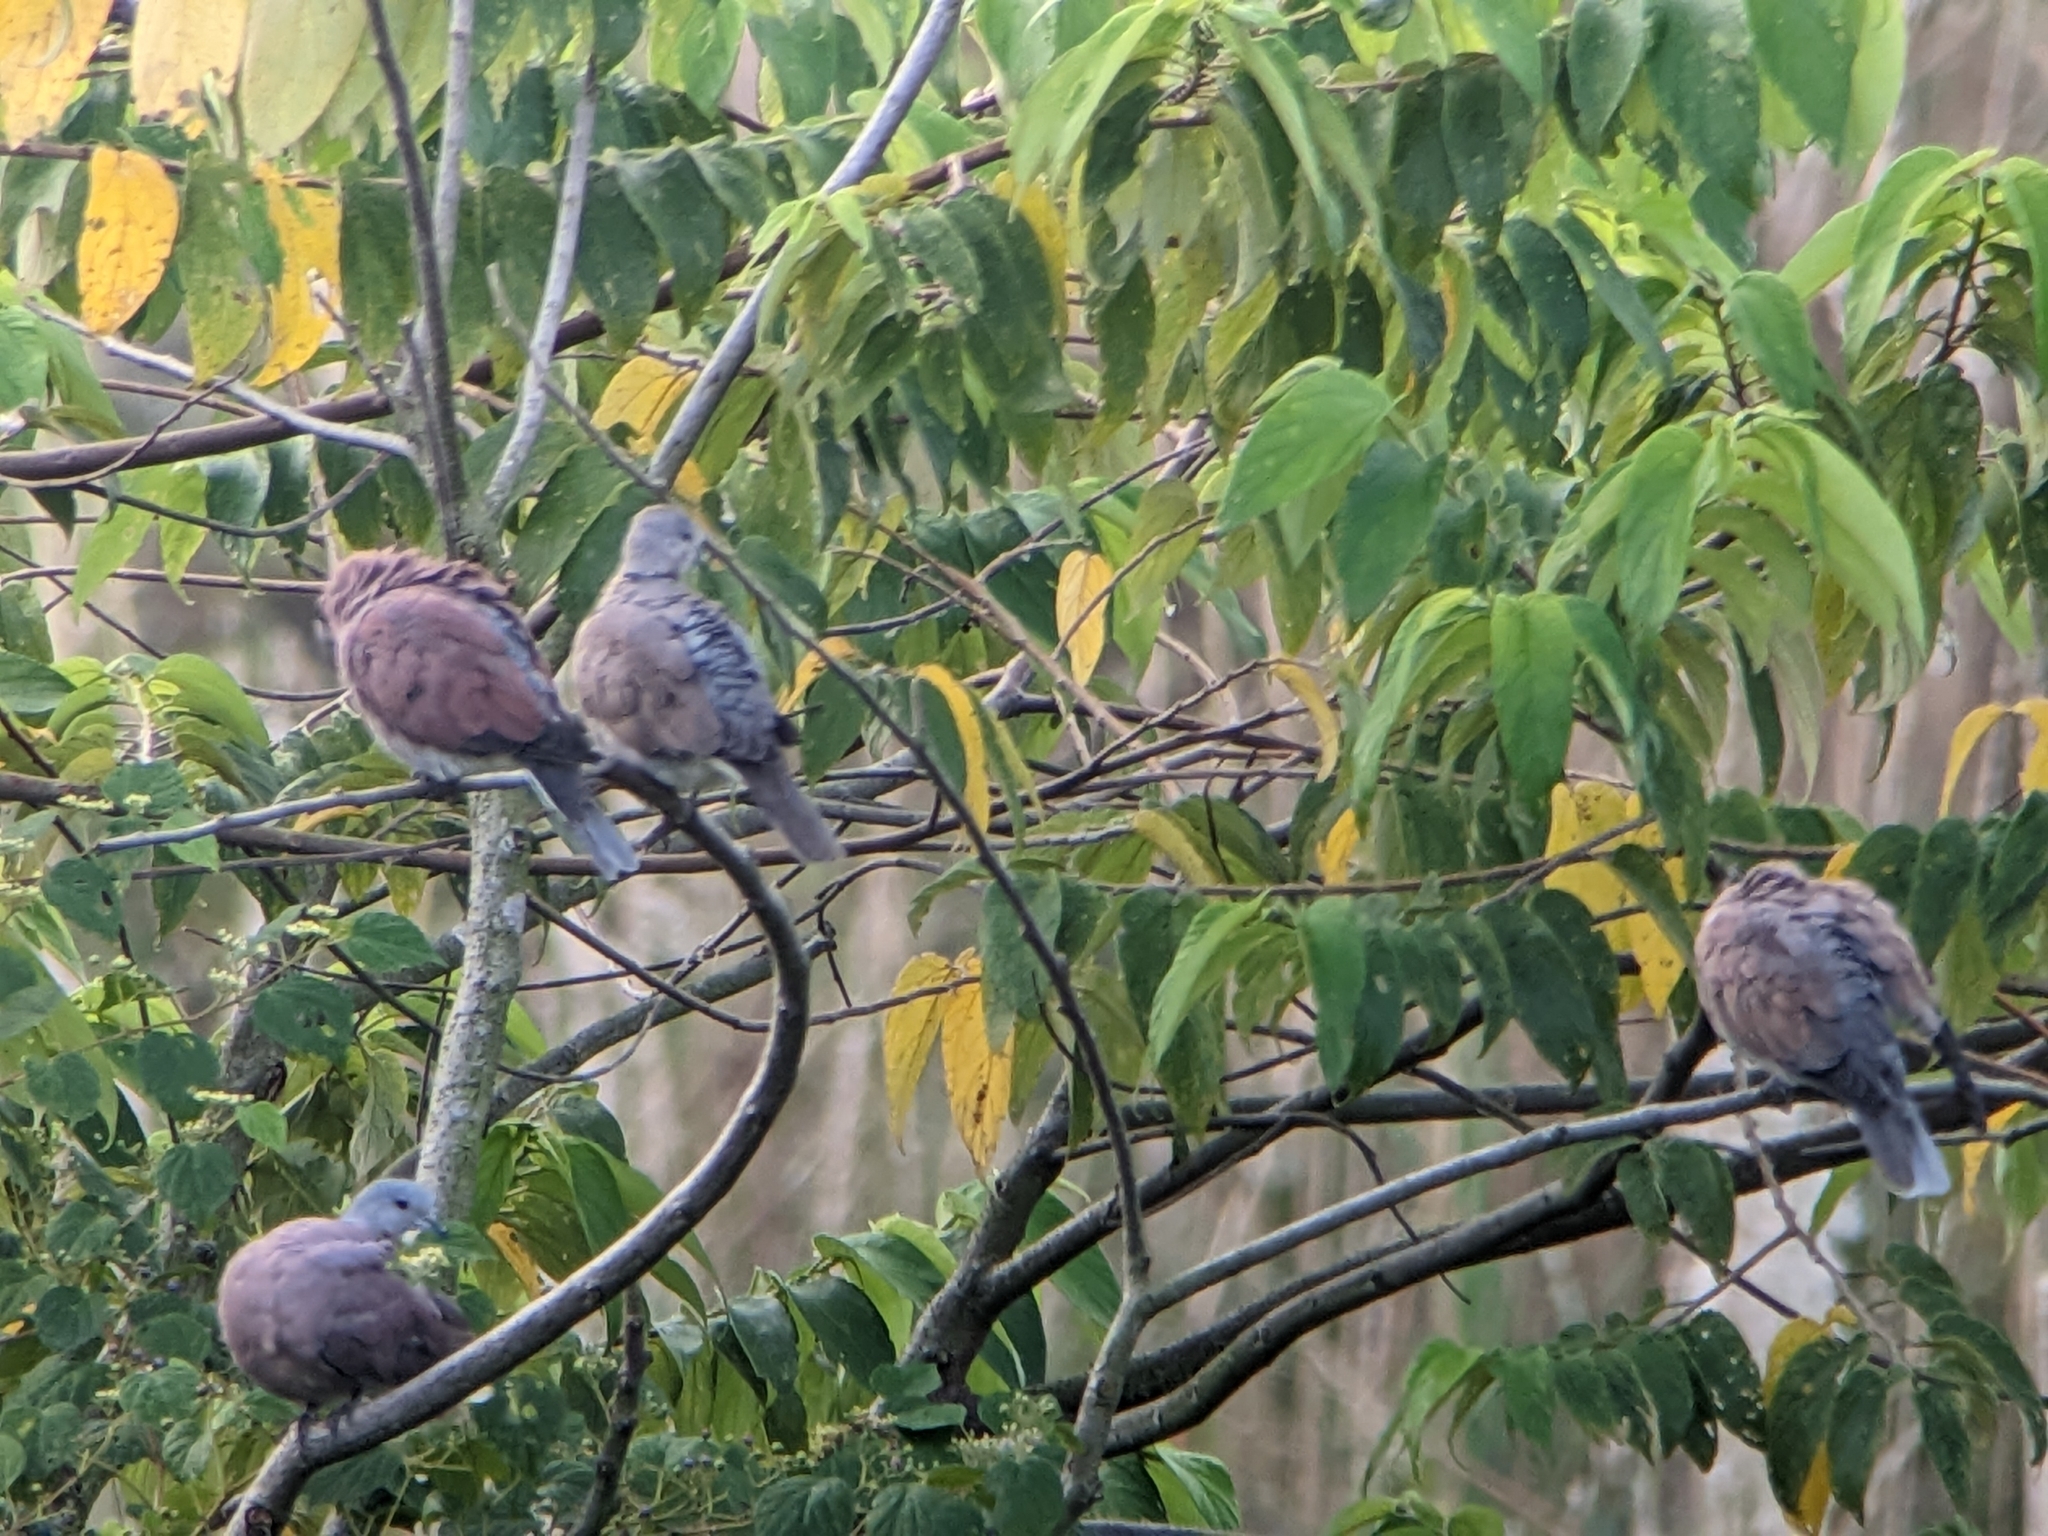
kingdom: Animalia
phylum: Chordata
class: Aves
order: Columbiformes
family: Columbidae
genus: Streptopelia
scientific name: Streptopelia tranquebarica
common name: Red turtle dove
